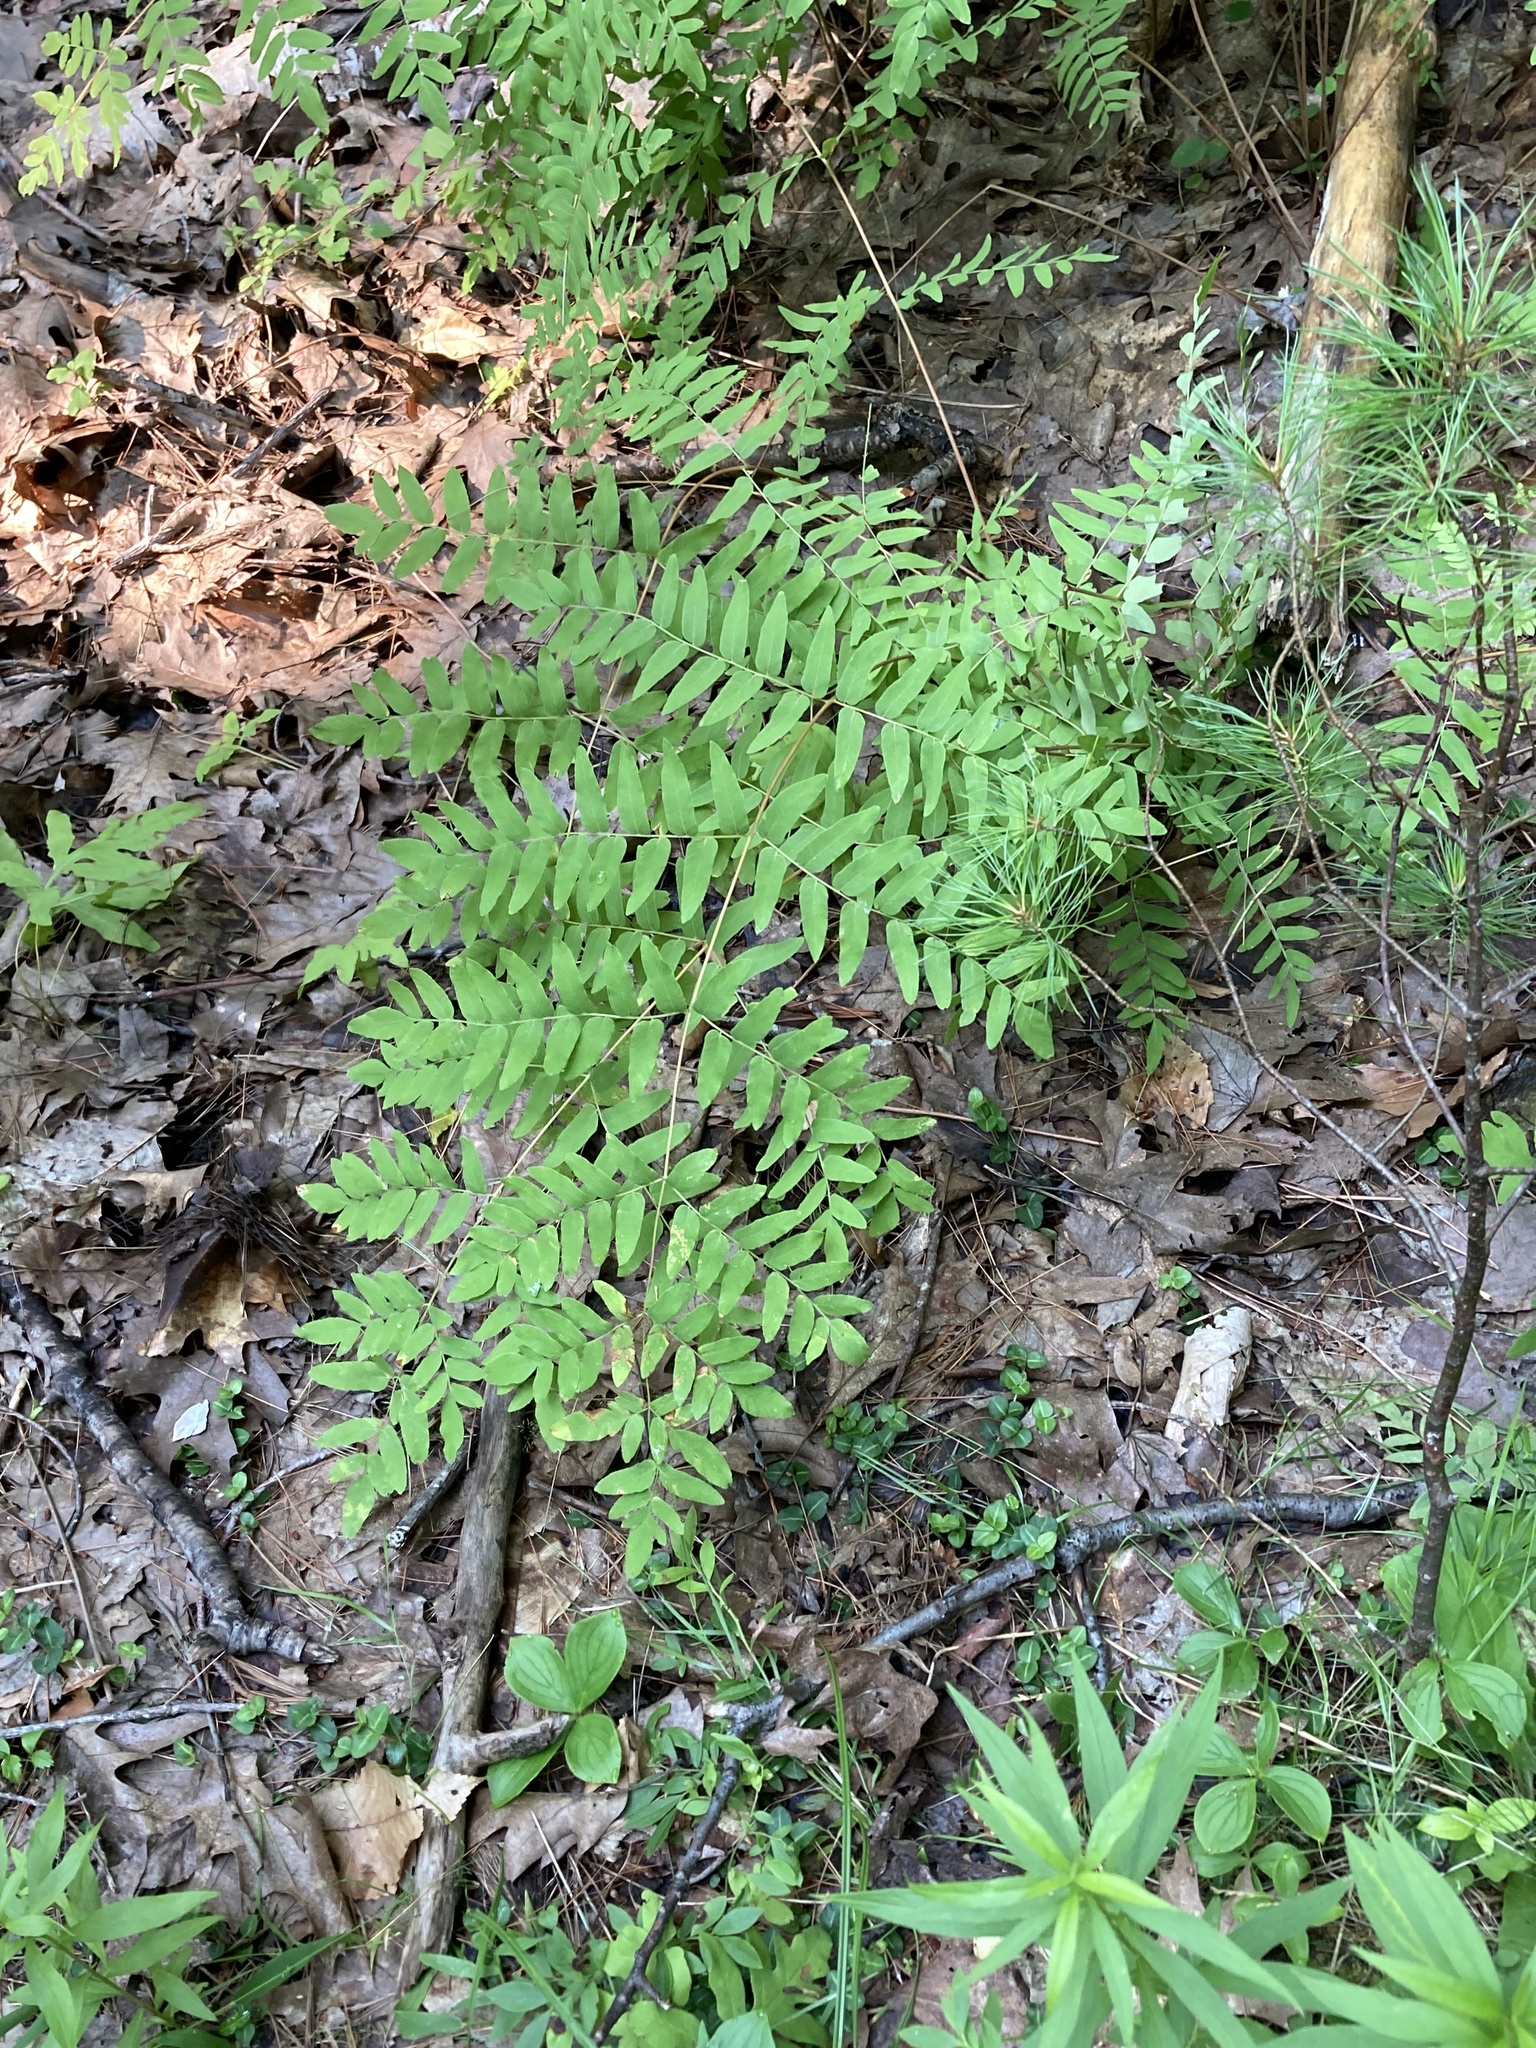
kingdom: Plantae
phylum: Tracheophyta
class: Polypodiopsida
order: Osmundales
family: Osmundaceae
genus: Osmunda
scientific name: Osmunda spectabilis
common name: American royal fern
